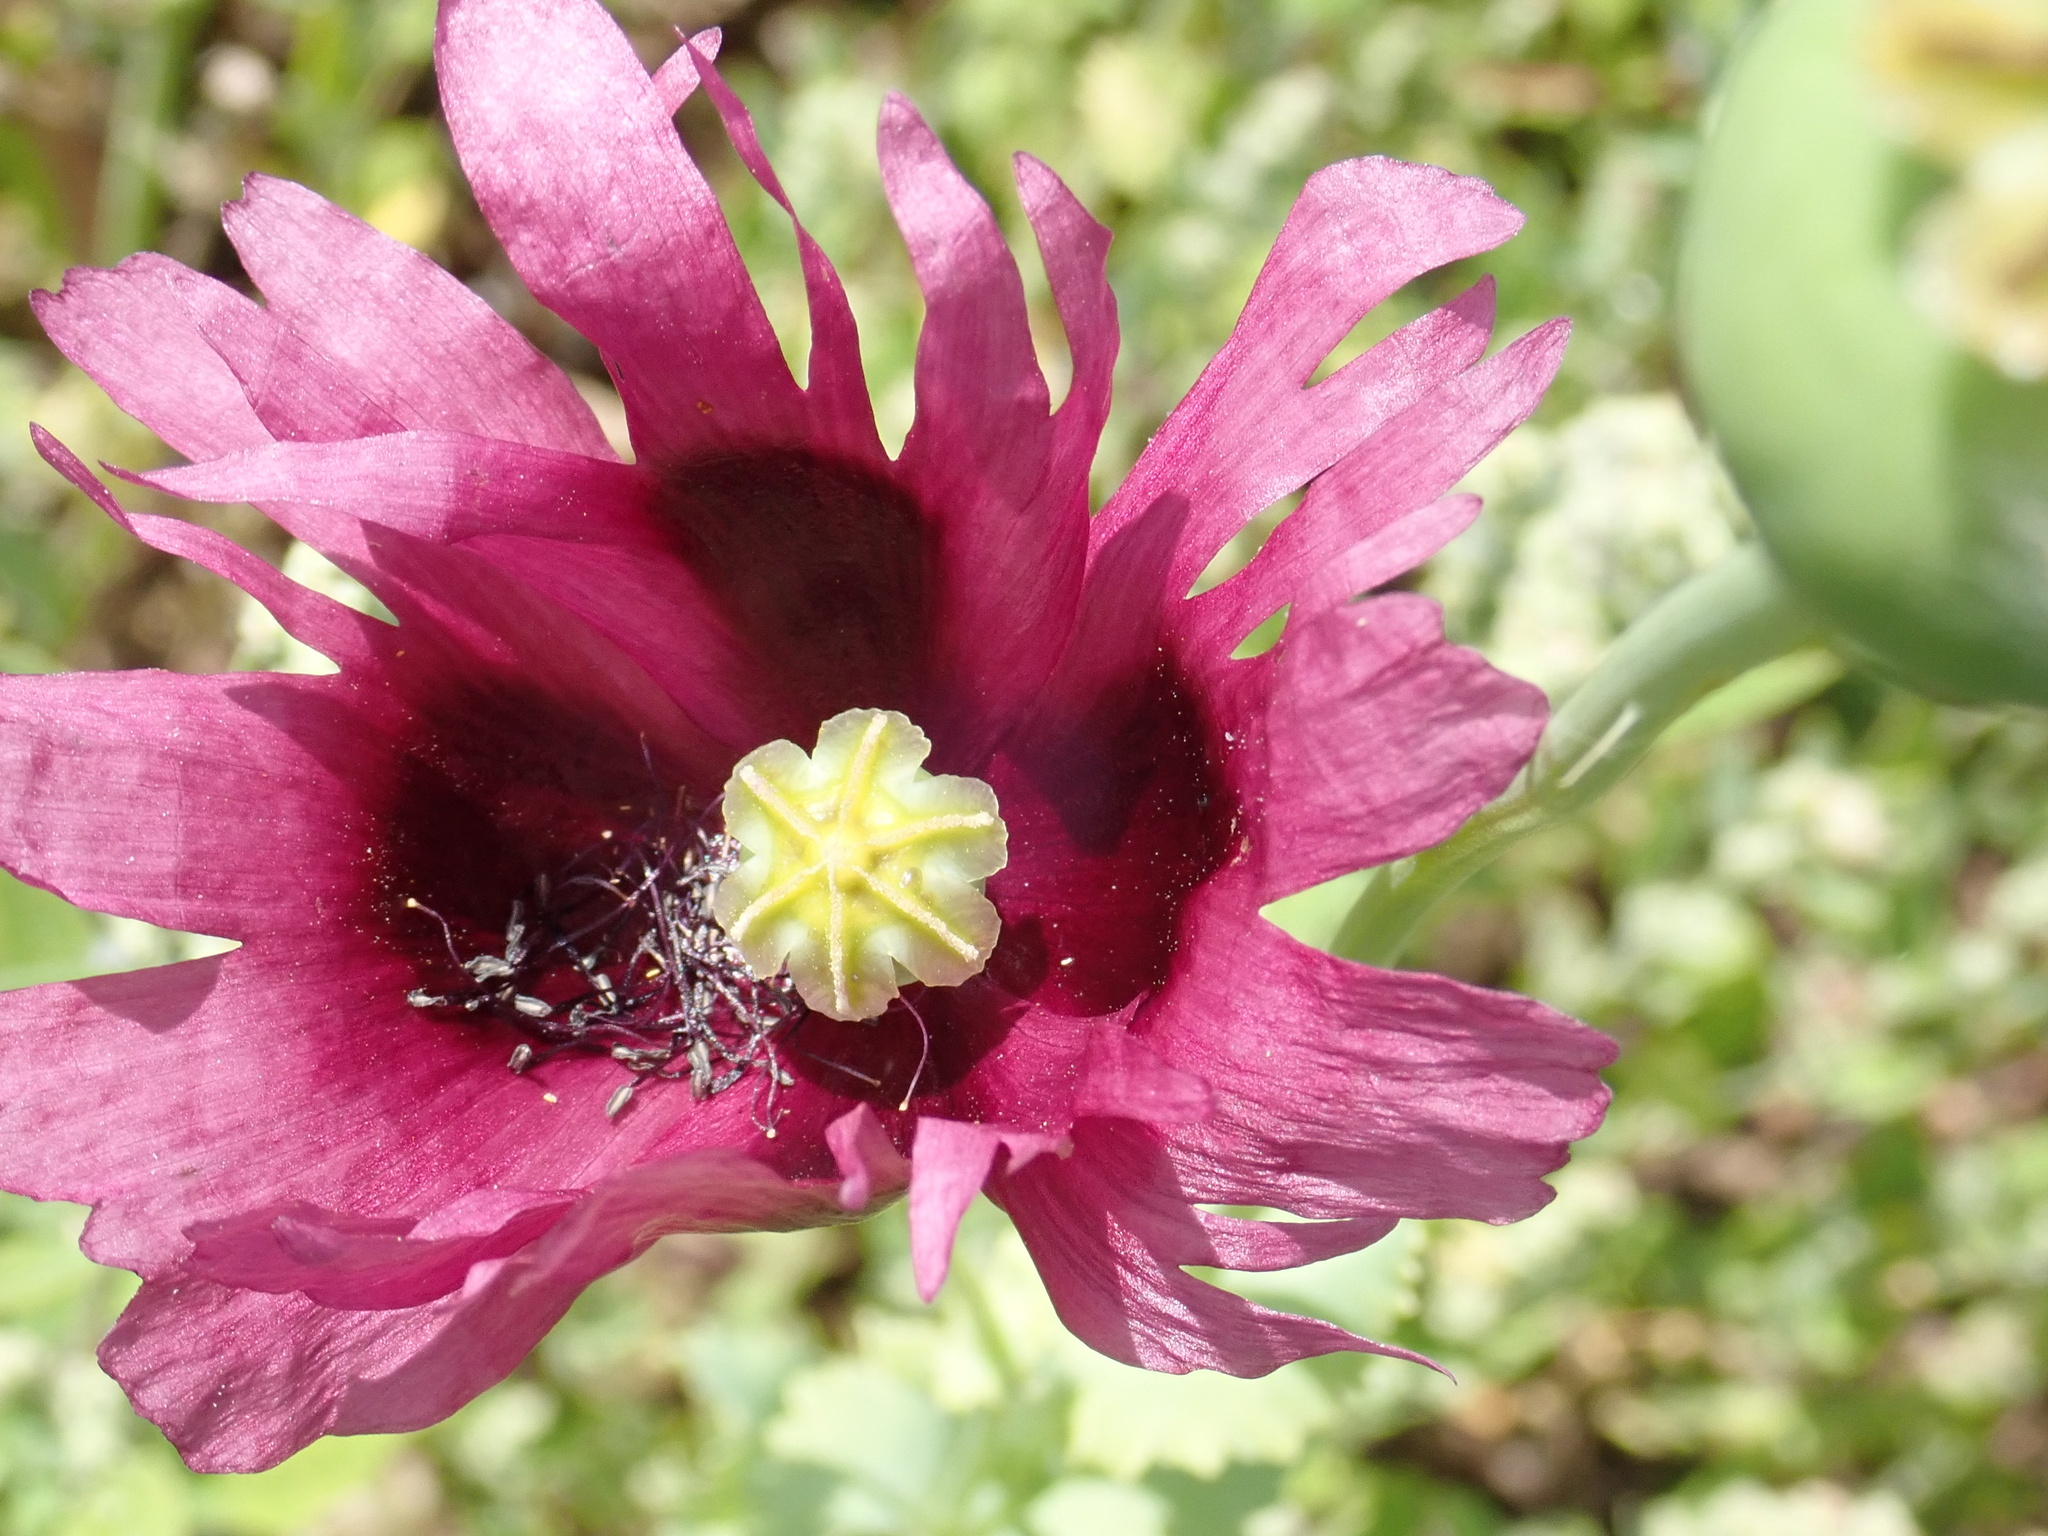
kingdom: Plantae
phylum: Tracheophyta
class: Magnoliopsida
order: Ranunculales
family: Papaveraceae
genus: Papaver
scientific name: Papaver somniferum
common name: Opium poppy
